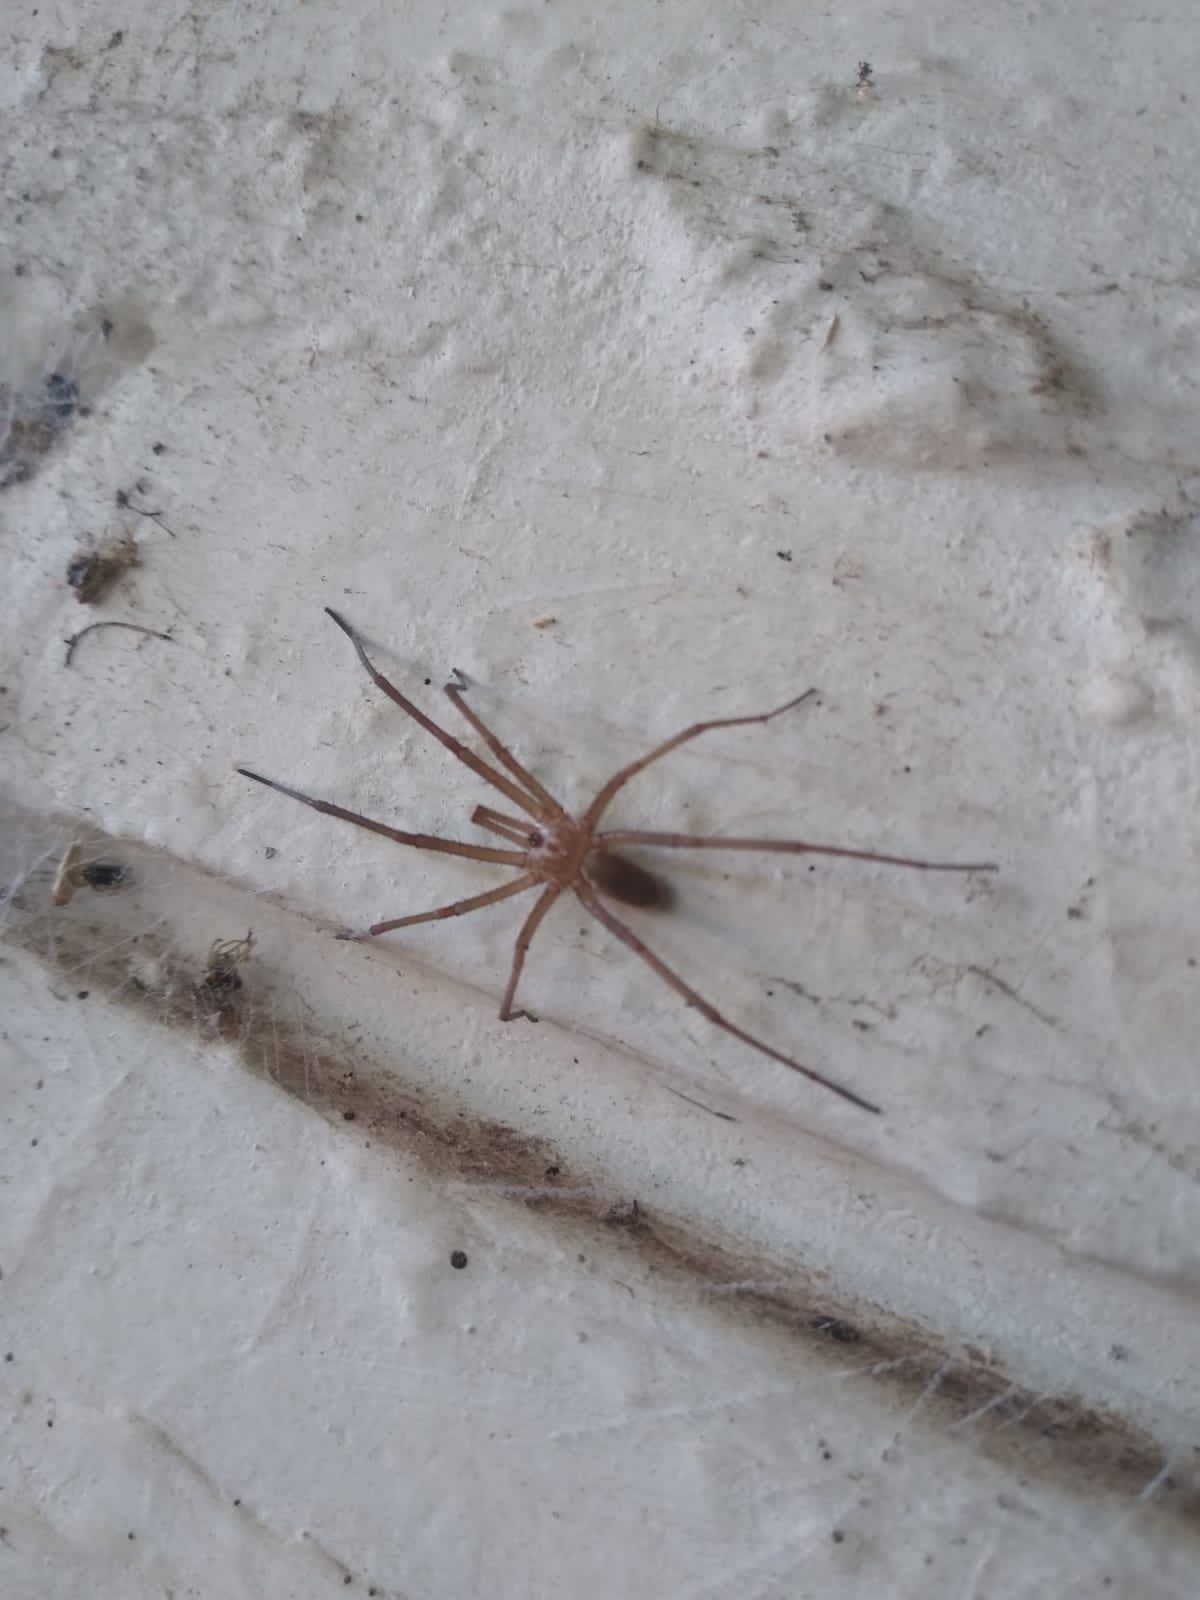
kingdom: Animalia
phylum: Arthropoda
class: Arachnida
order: Araneae
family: Filistatidae
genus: Kukulcania
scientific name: Kukulcania hibernalis
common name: Crevice weaver
